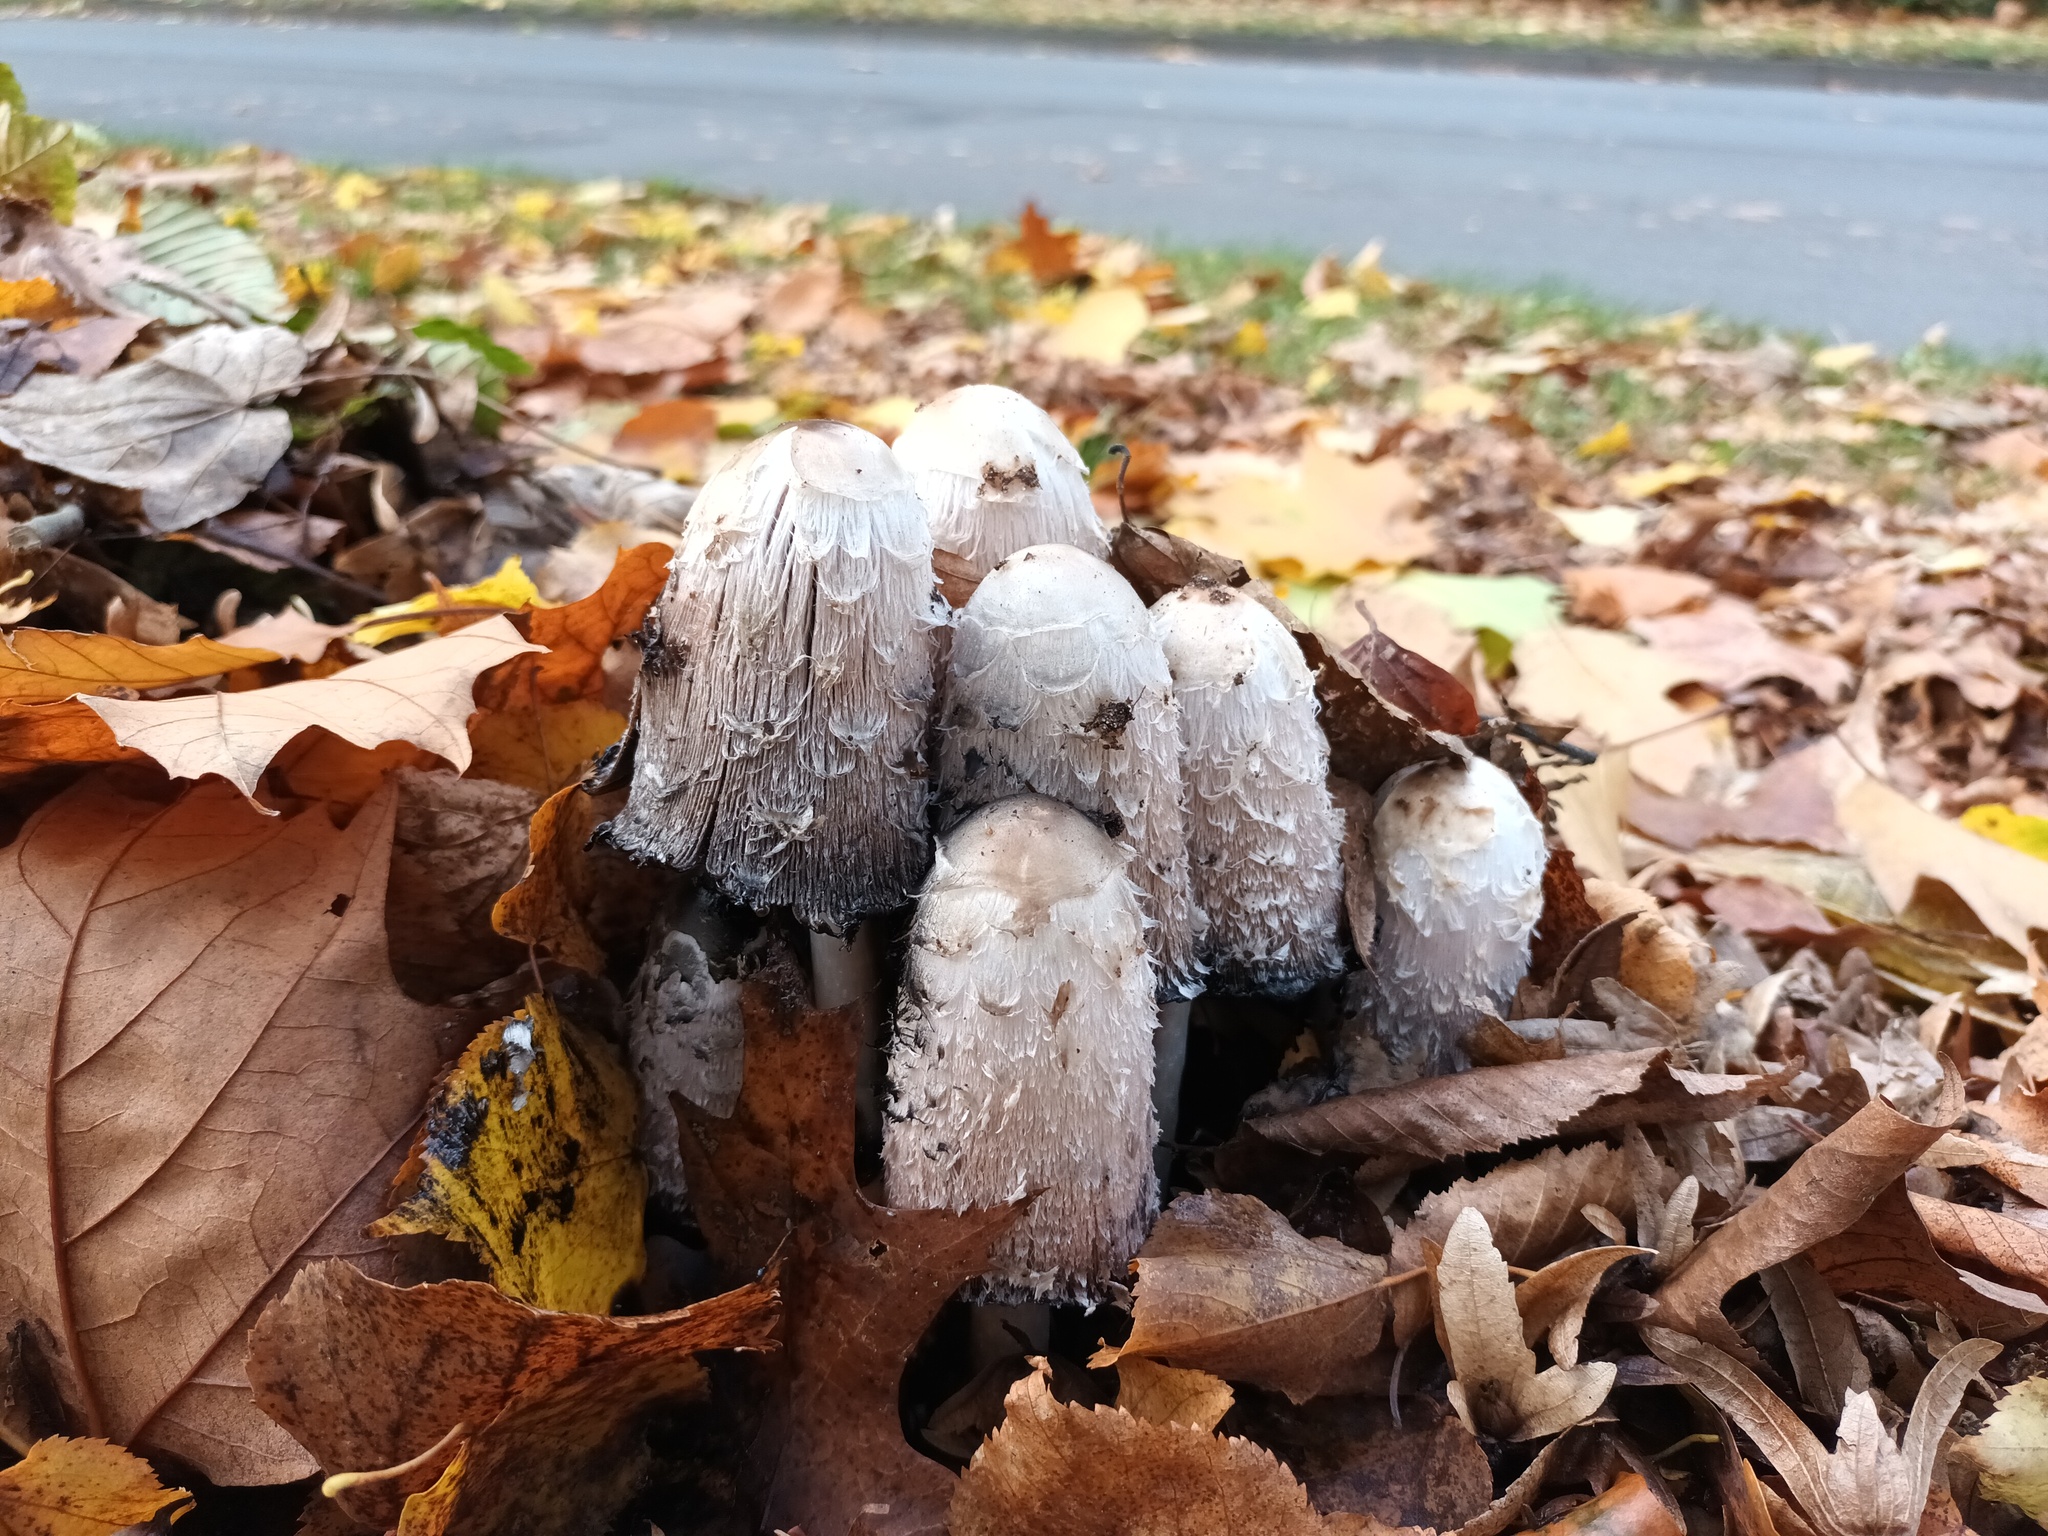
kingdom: Fungi
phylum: Basidiomycota
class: Agaricomycetes
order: Agaricales
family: Agaricaceae
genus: Coprinus
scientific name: Coprinus comatus
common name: Lawyer's wig
